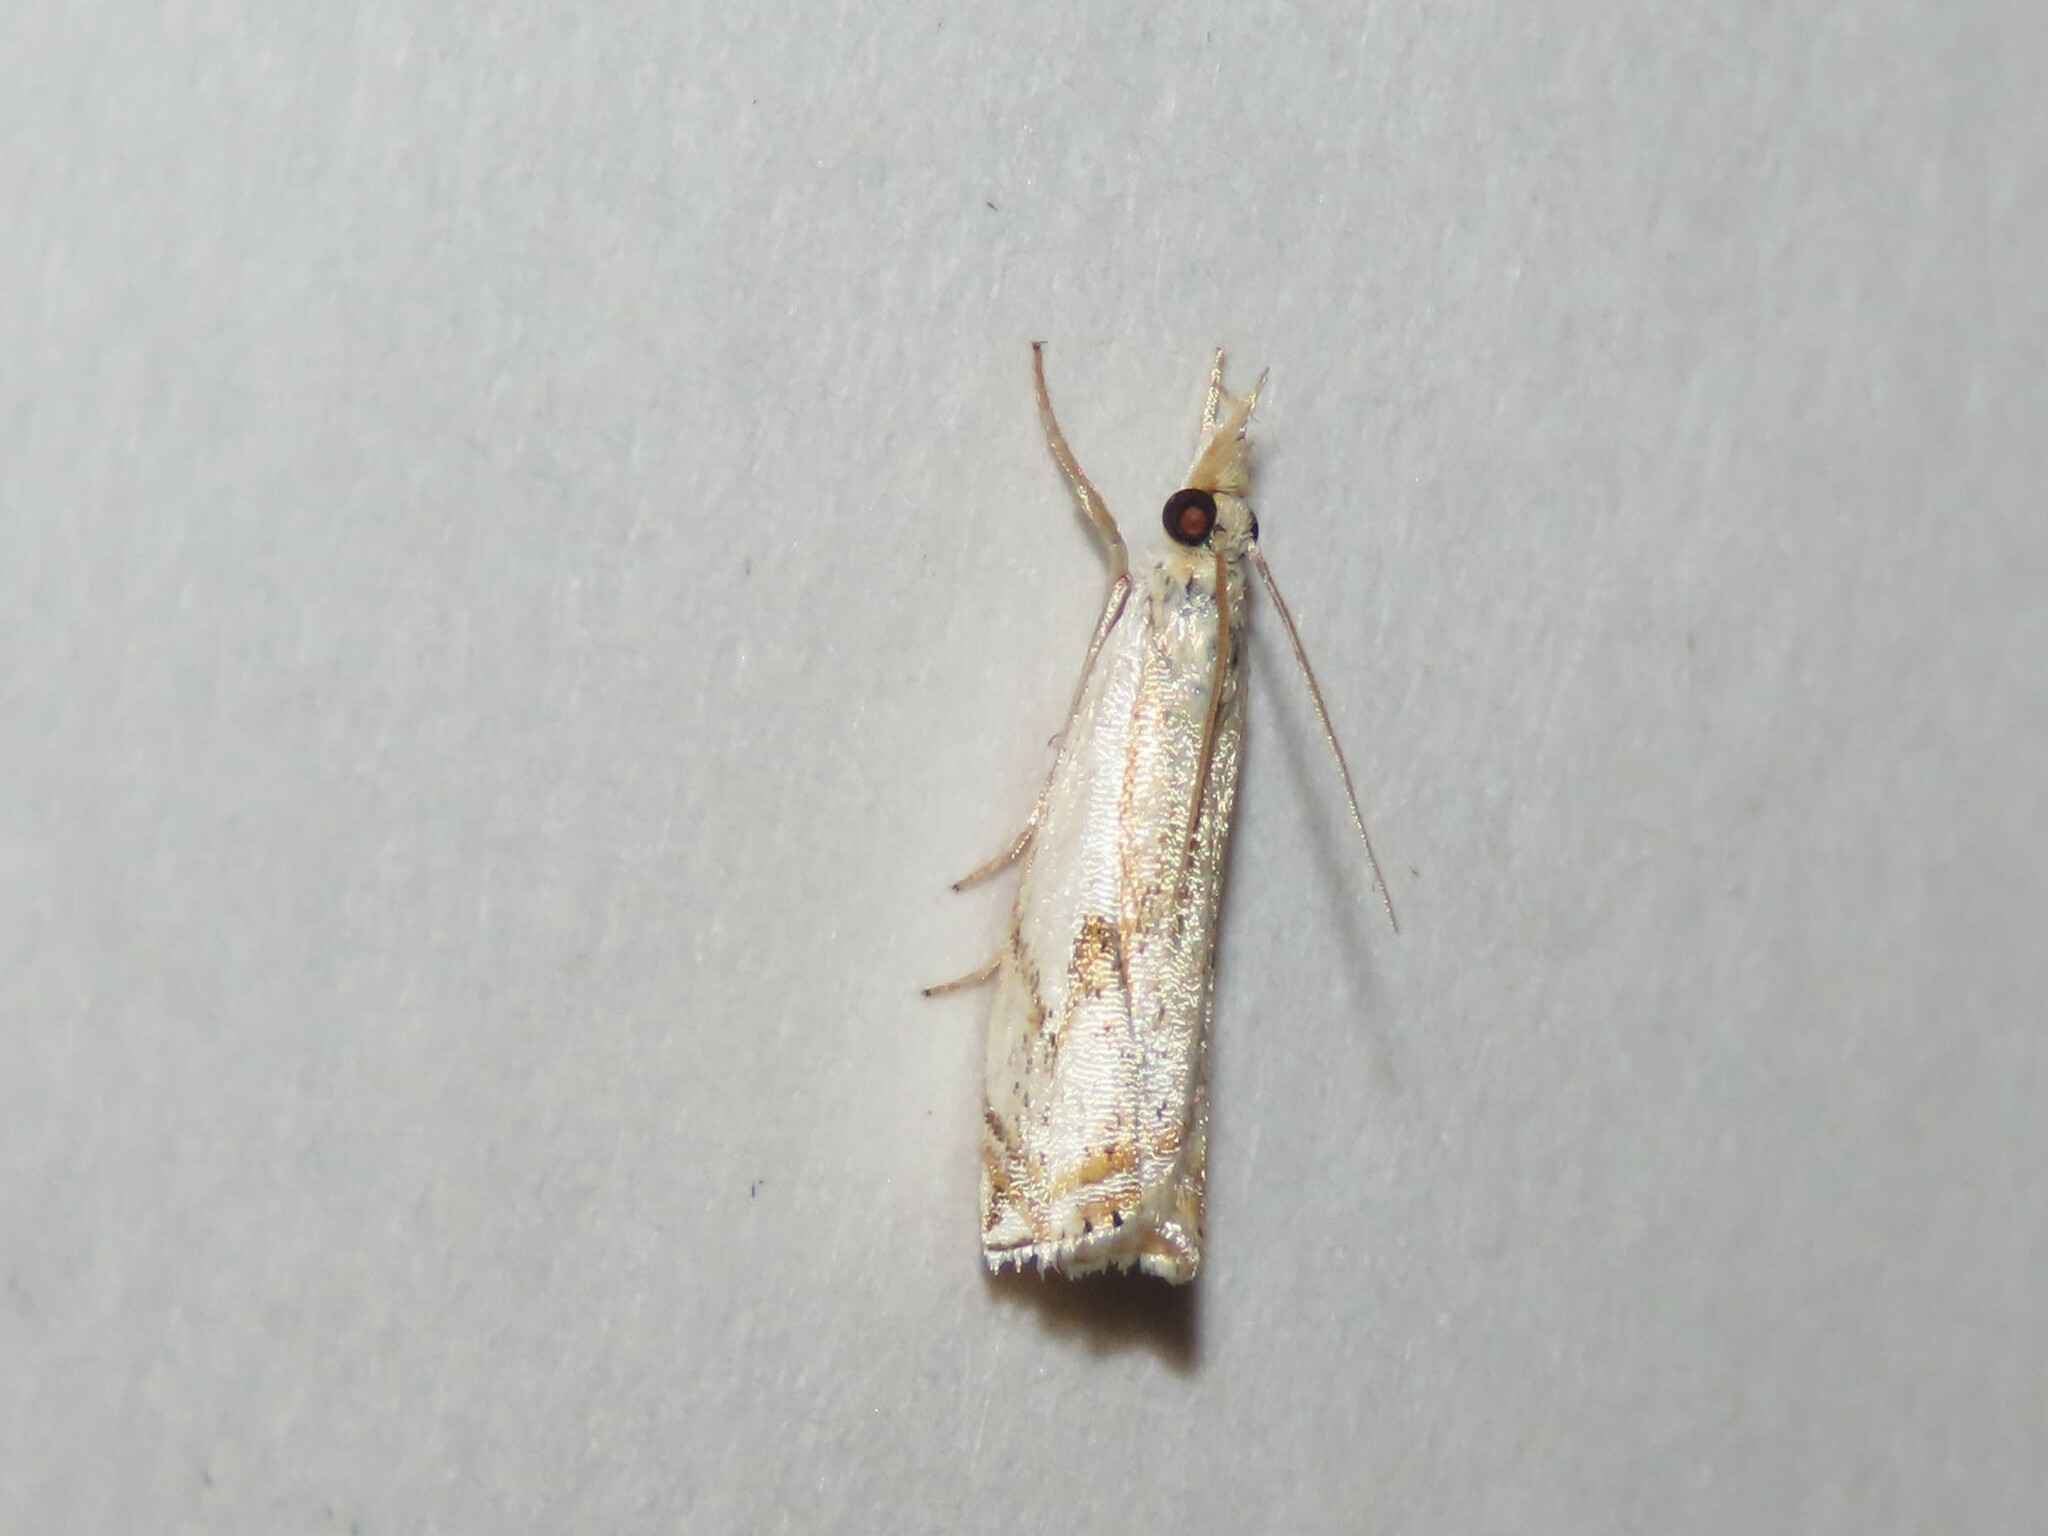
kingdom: Animalia
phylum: Arthropoda
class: Insecta
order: Lepidoptera
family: Crambidae
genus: Crambus
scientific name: Crambus agitatellus
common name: Double-banded grass-veneer
